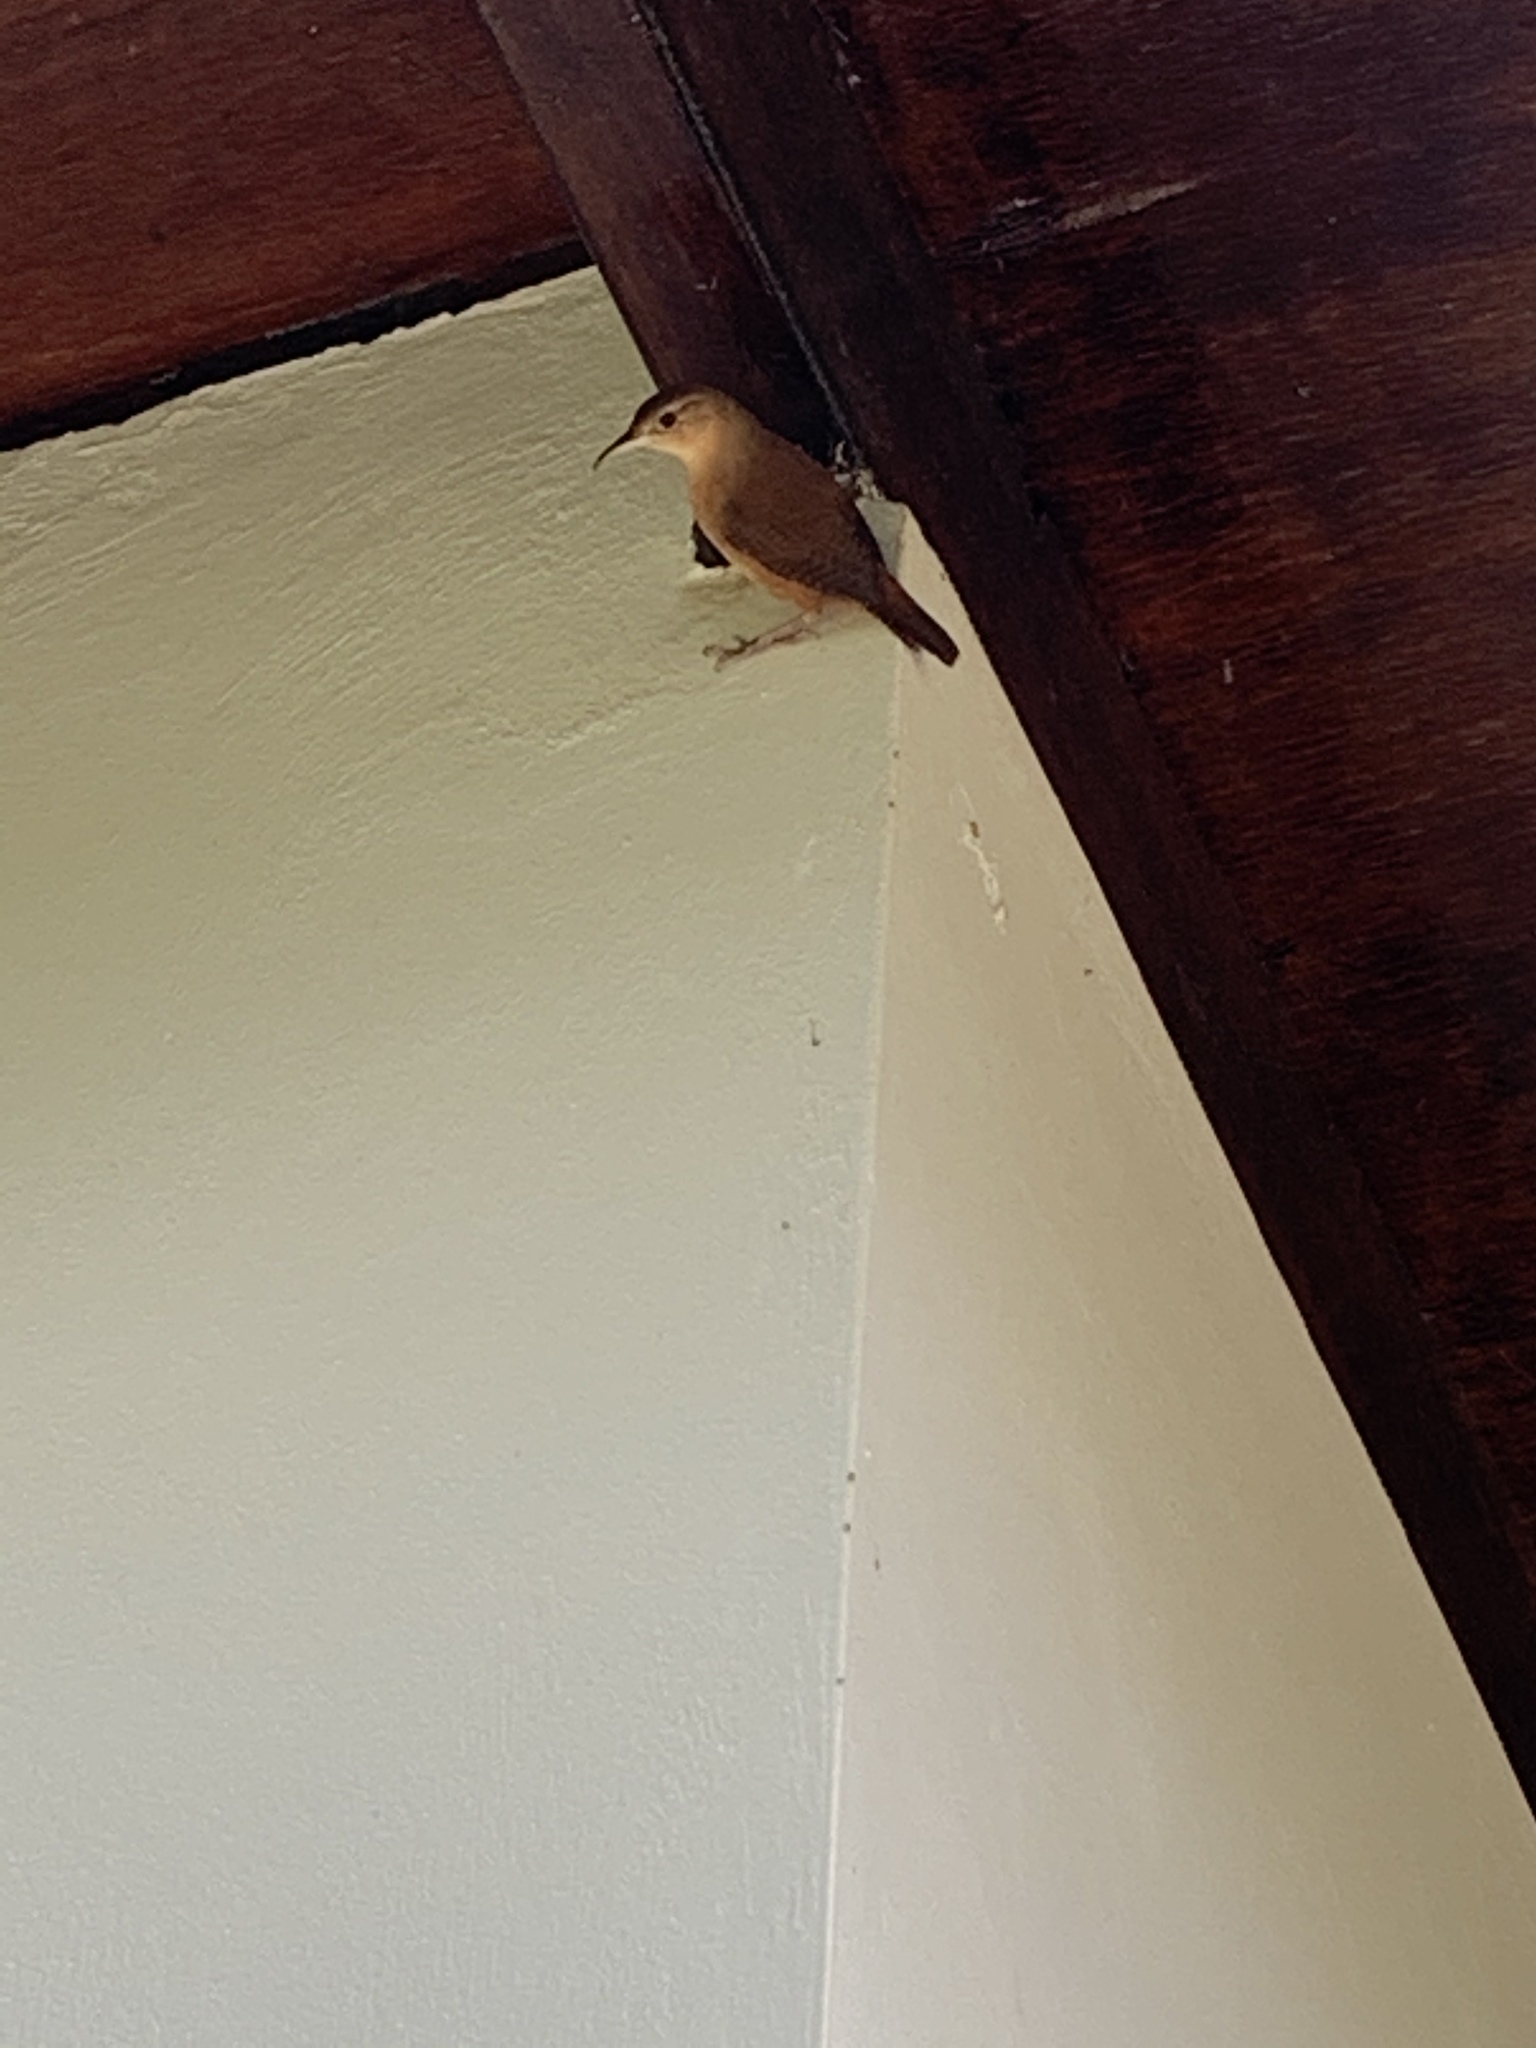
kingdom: Animalia
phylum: Chordata
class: Aves
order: Passeriformes
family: Troglodytidae
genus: Troglodytes
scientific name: Troglodytes aedon
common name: House wren
